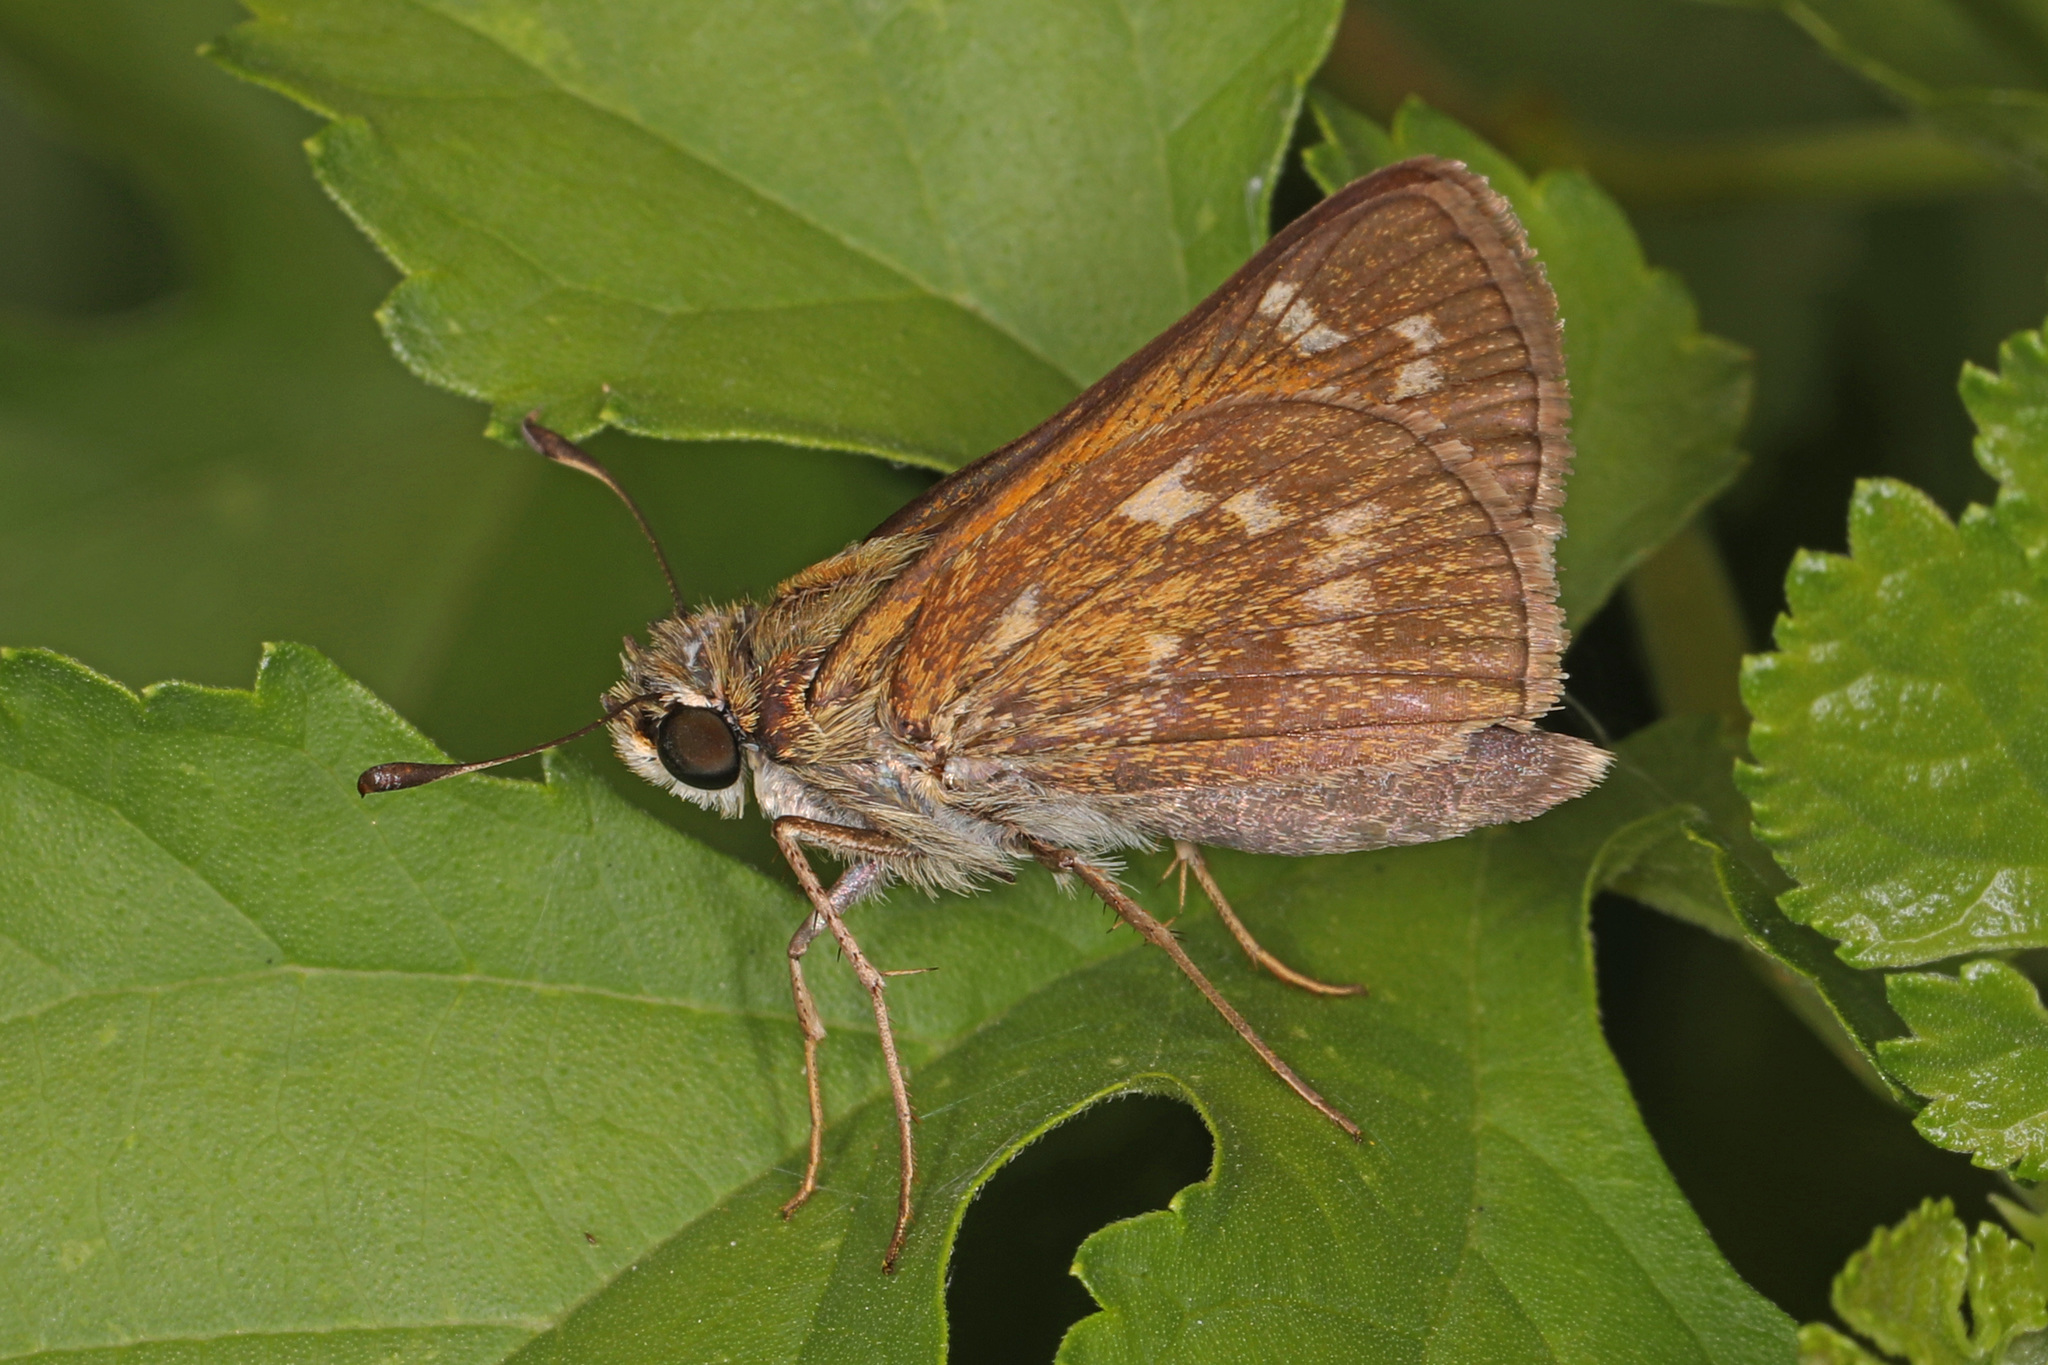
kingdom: Animalia
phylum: Arthropoda
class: Insecta
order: Lepidoptera
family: Hesperiidae
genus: Atalopedes
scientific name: Atalopedes
